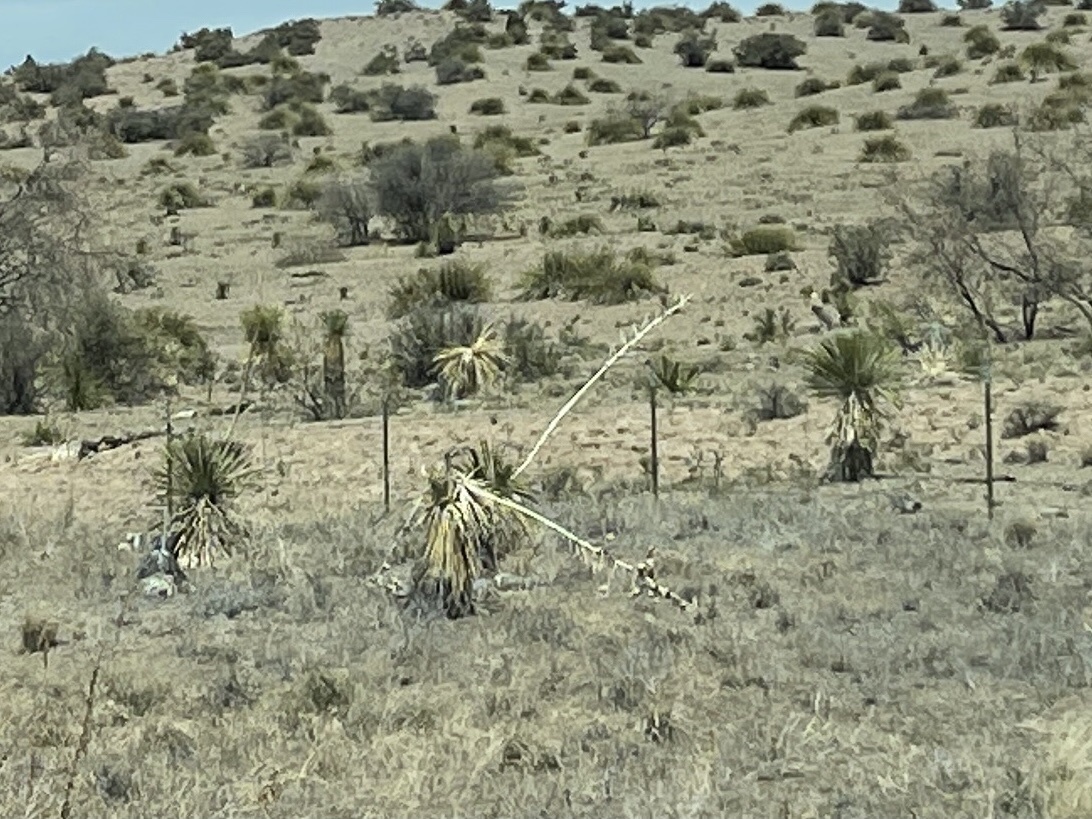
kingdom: Plantae
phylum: Tracheophyta
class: Liliopsida
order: Asparagales
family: Asparagaceae
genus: Yucca
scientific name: Yucca elata
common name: Palmella
